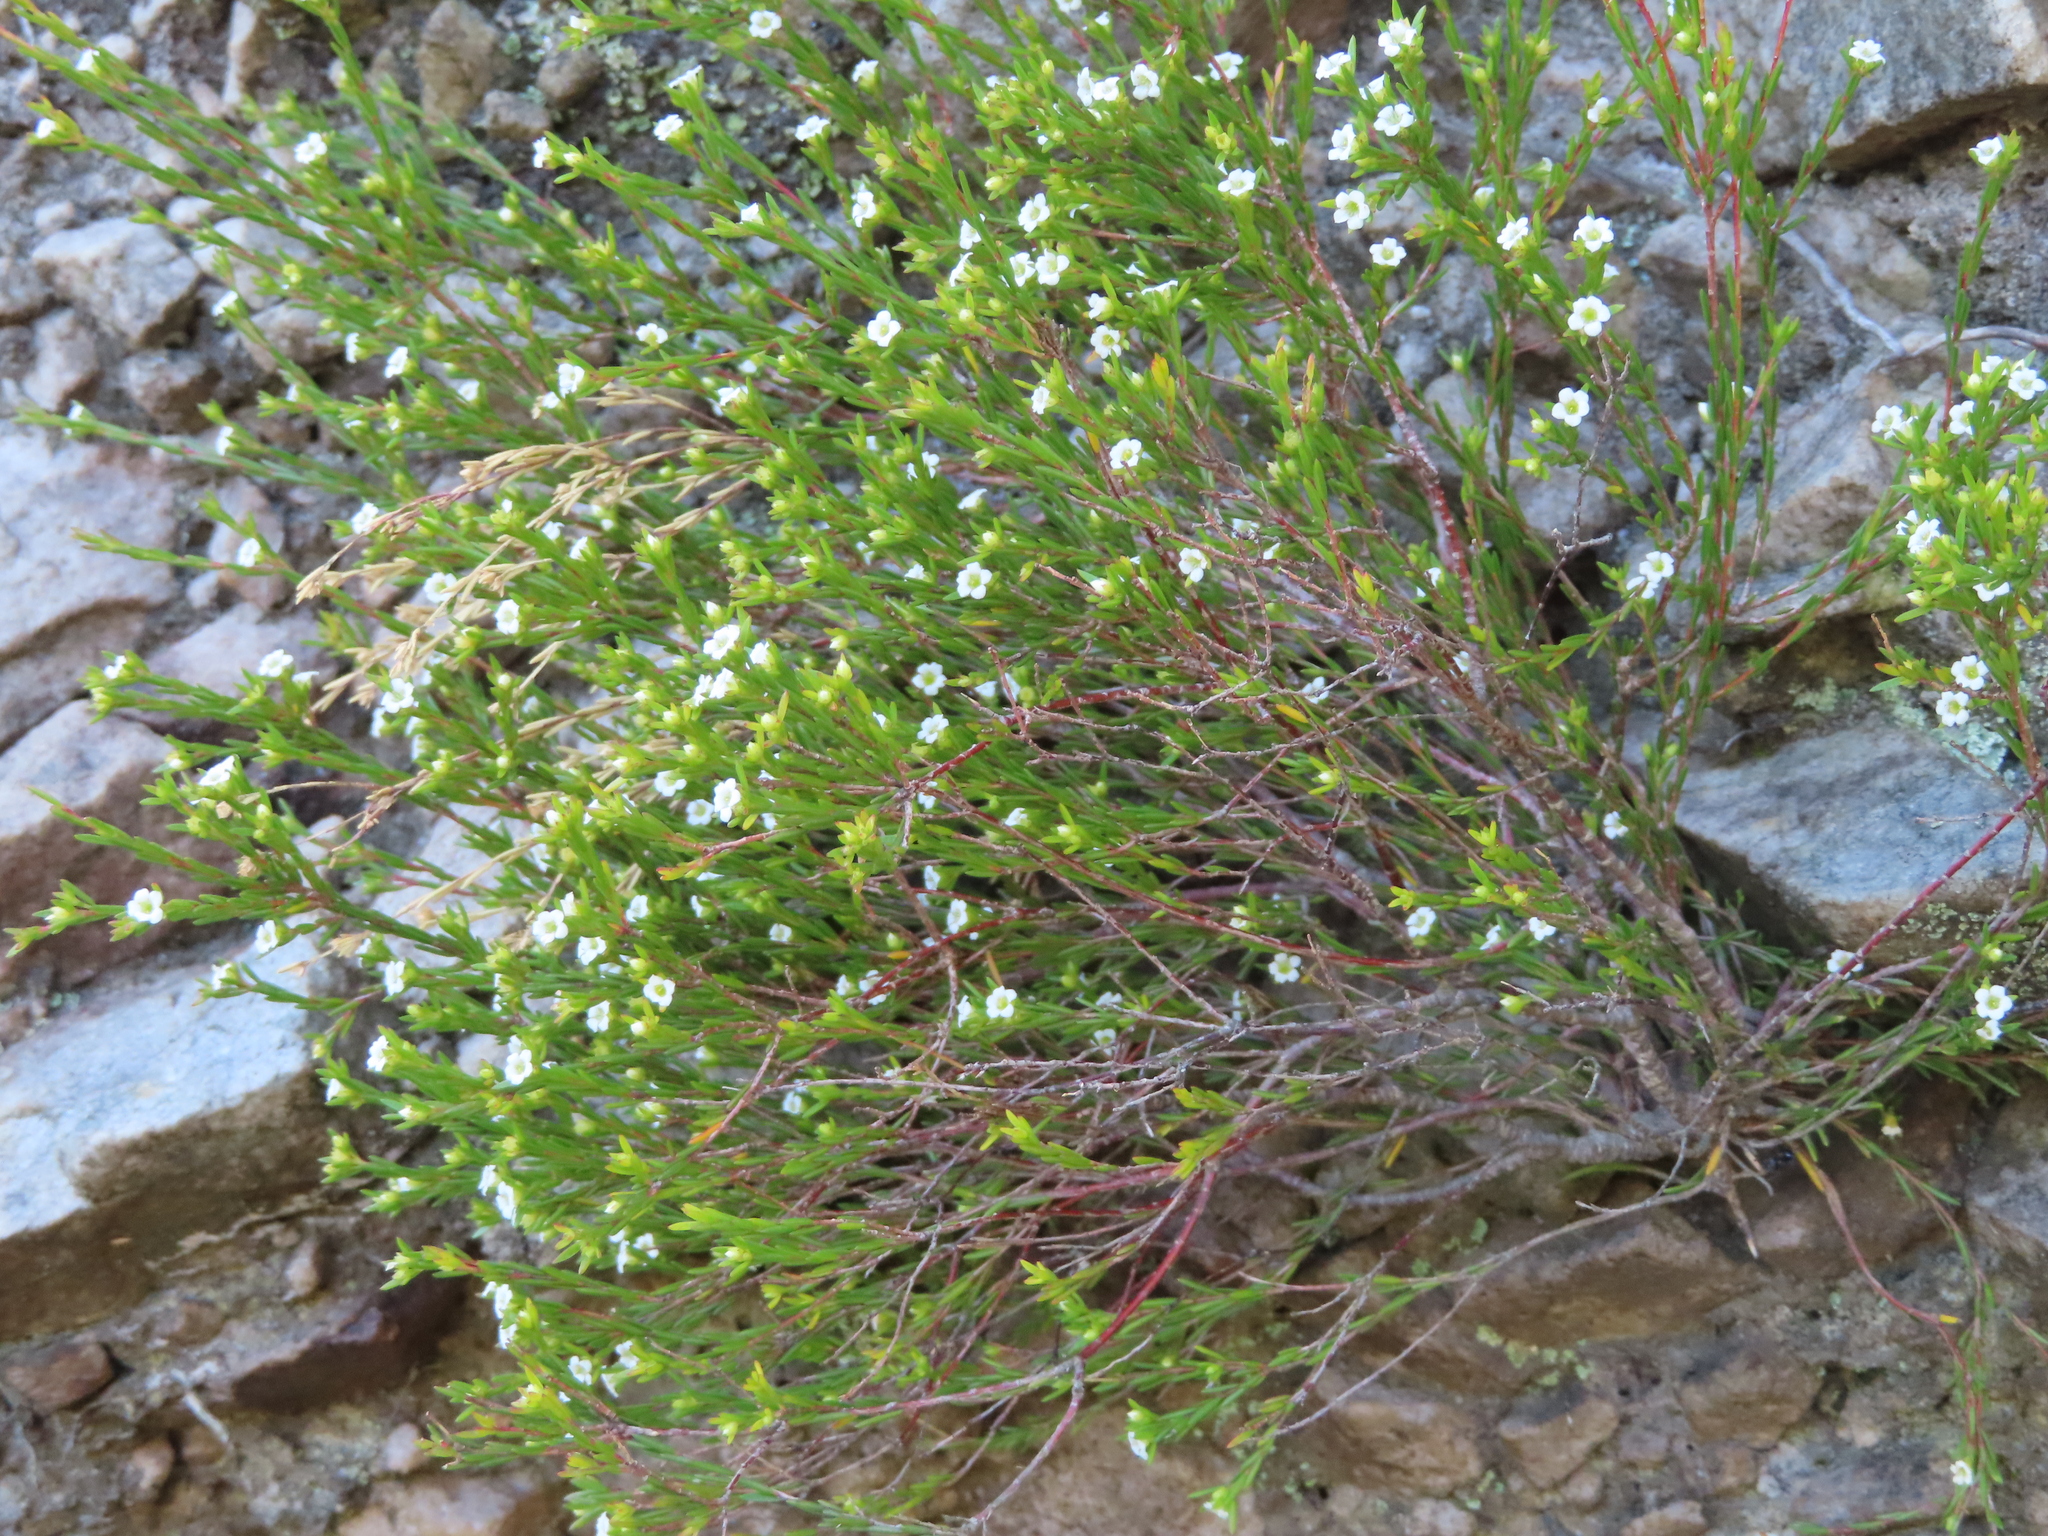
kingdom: Plantae
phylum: Tracheophyta
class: Magnoliopsida
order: Sapindales
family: Rutaceae
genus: Coleonema
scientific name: Coleonema juniperinum
